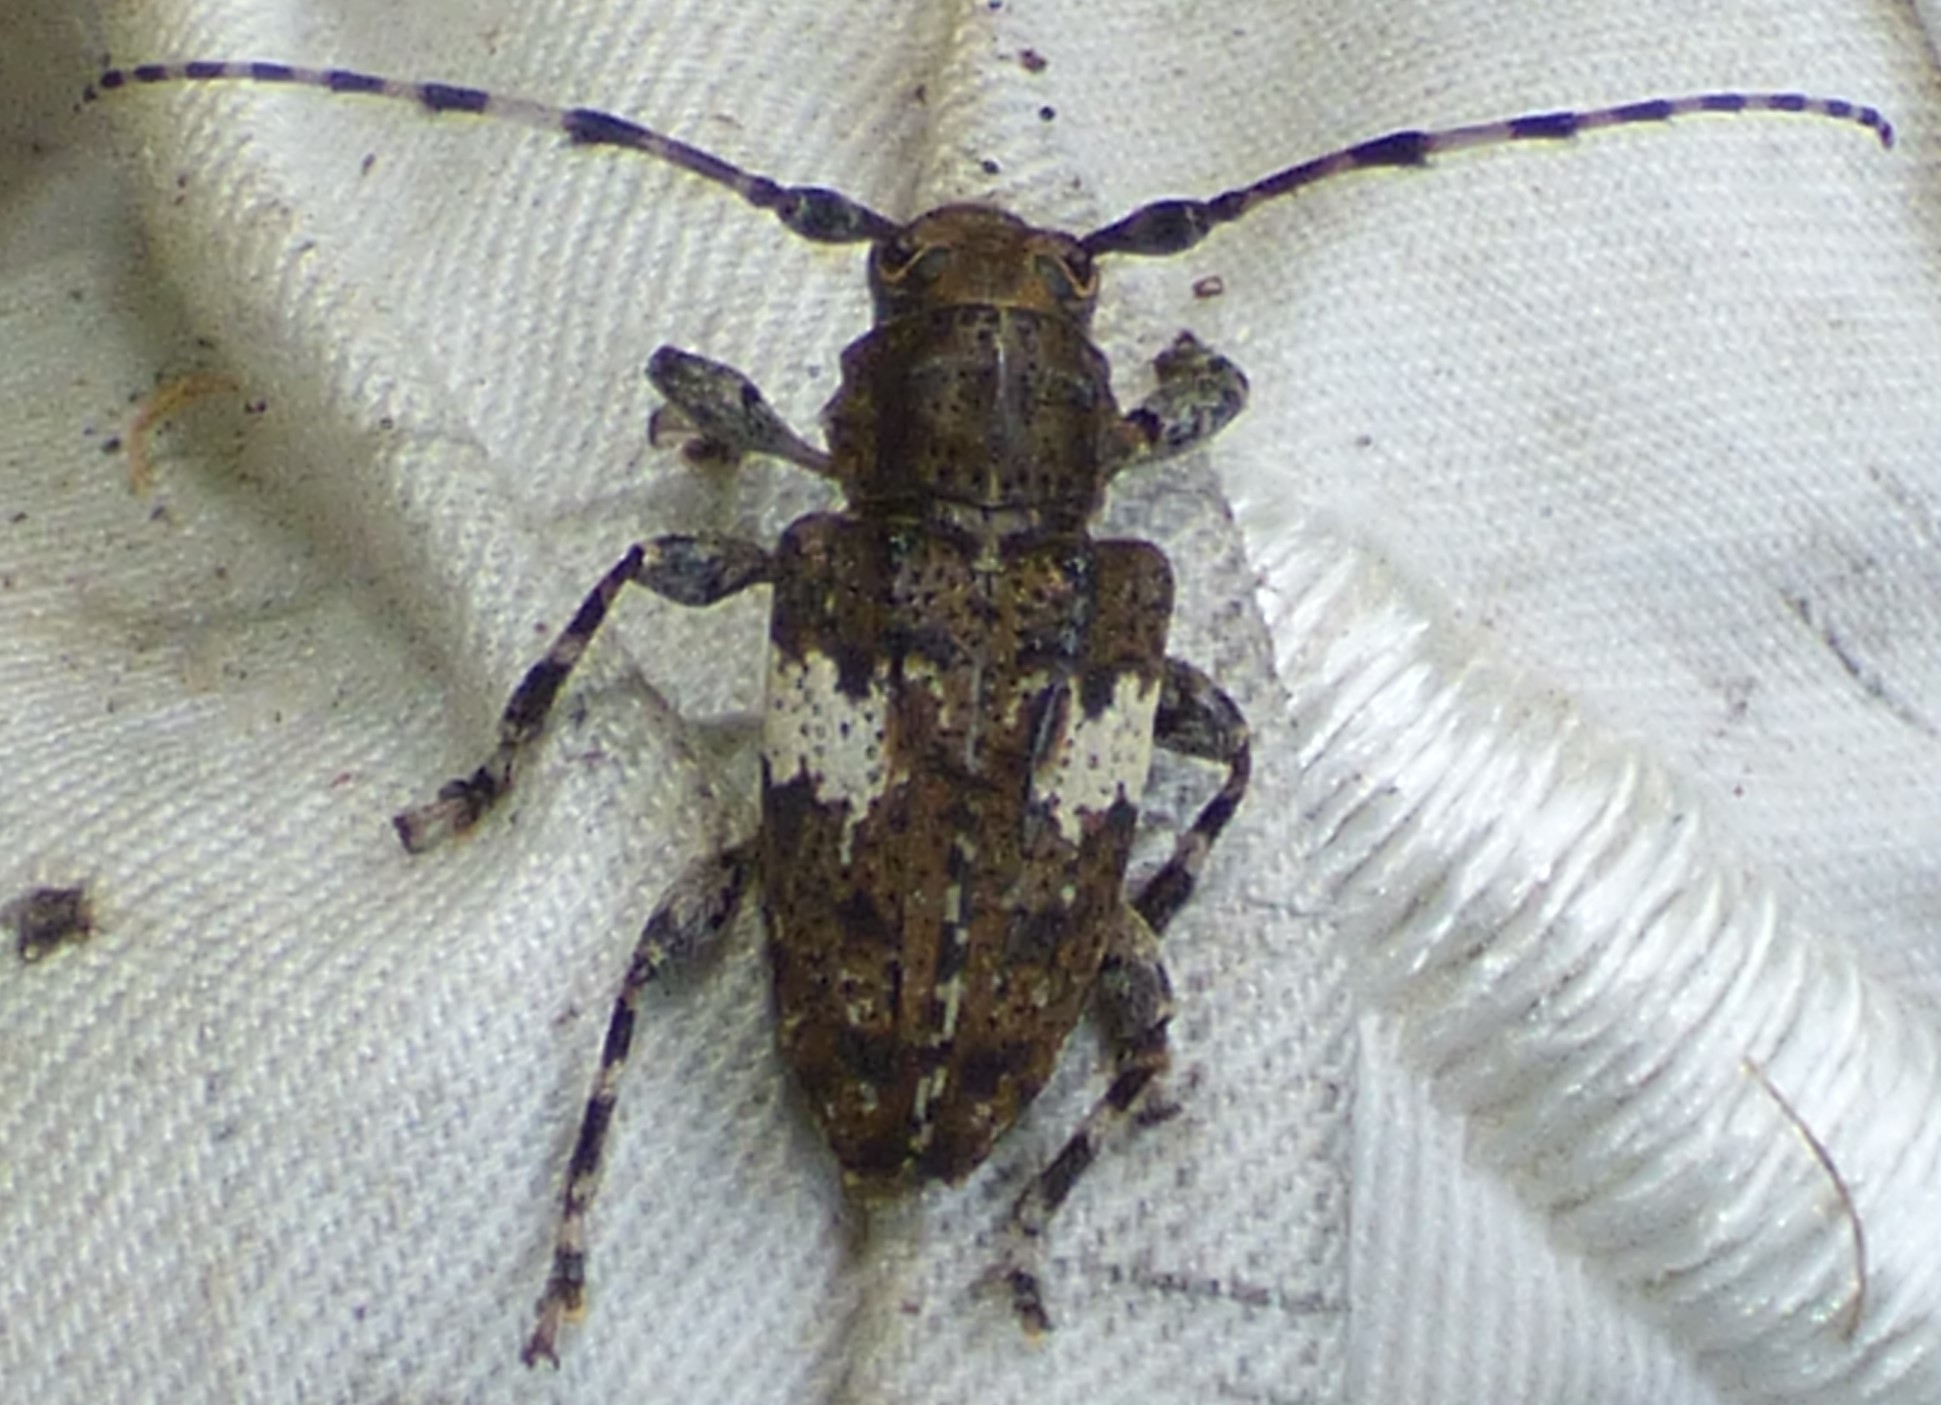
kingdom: Animalia
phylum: Arthropoda
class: Insecta
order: Coleoptera
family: Cerambycidae
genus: Acanthoderes
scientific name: Acanthoderes quadrigibba
